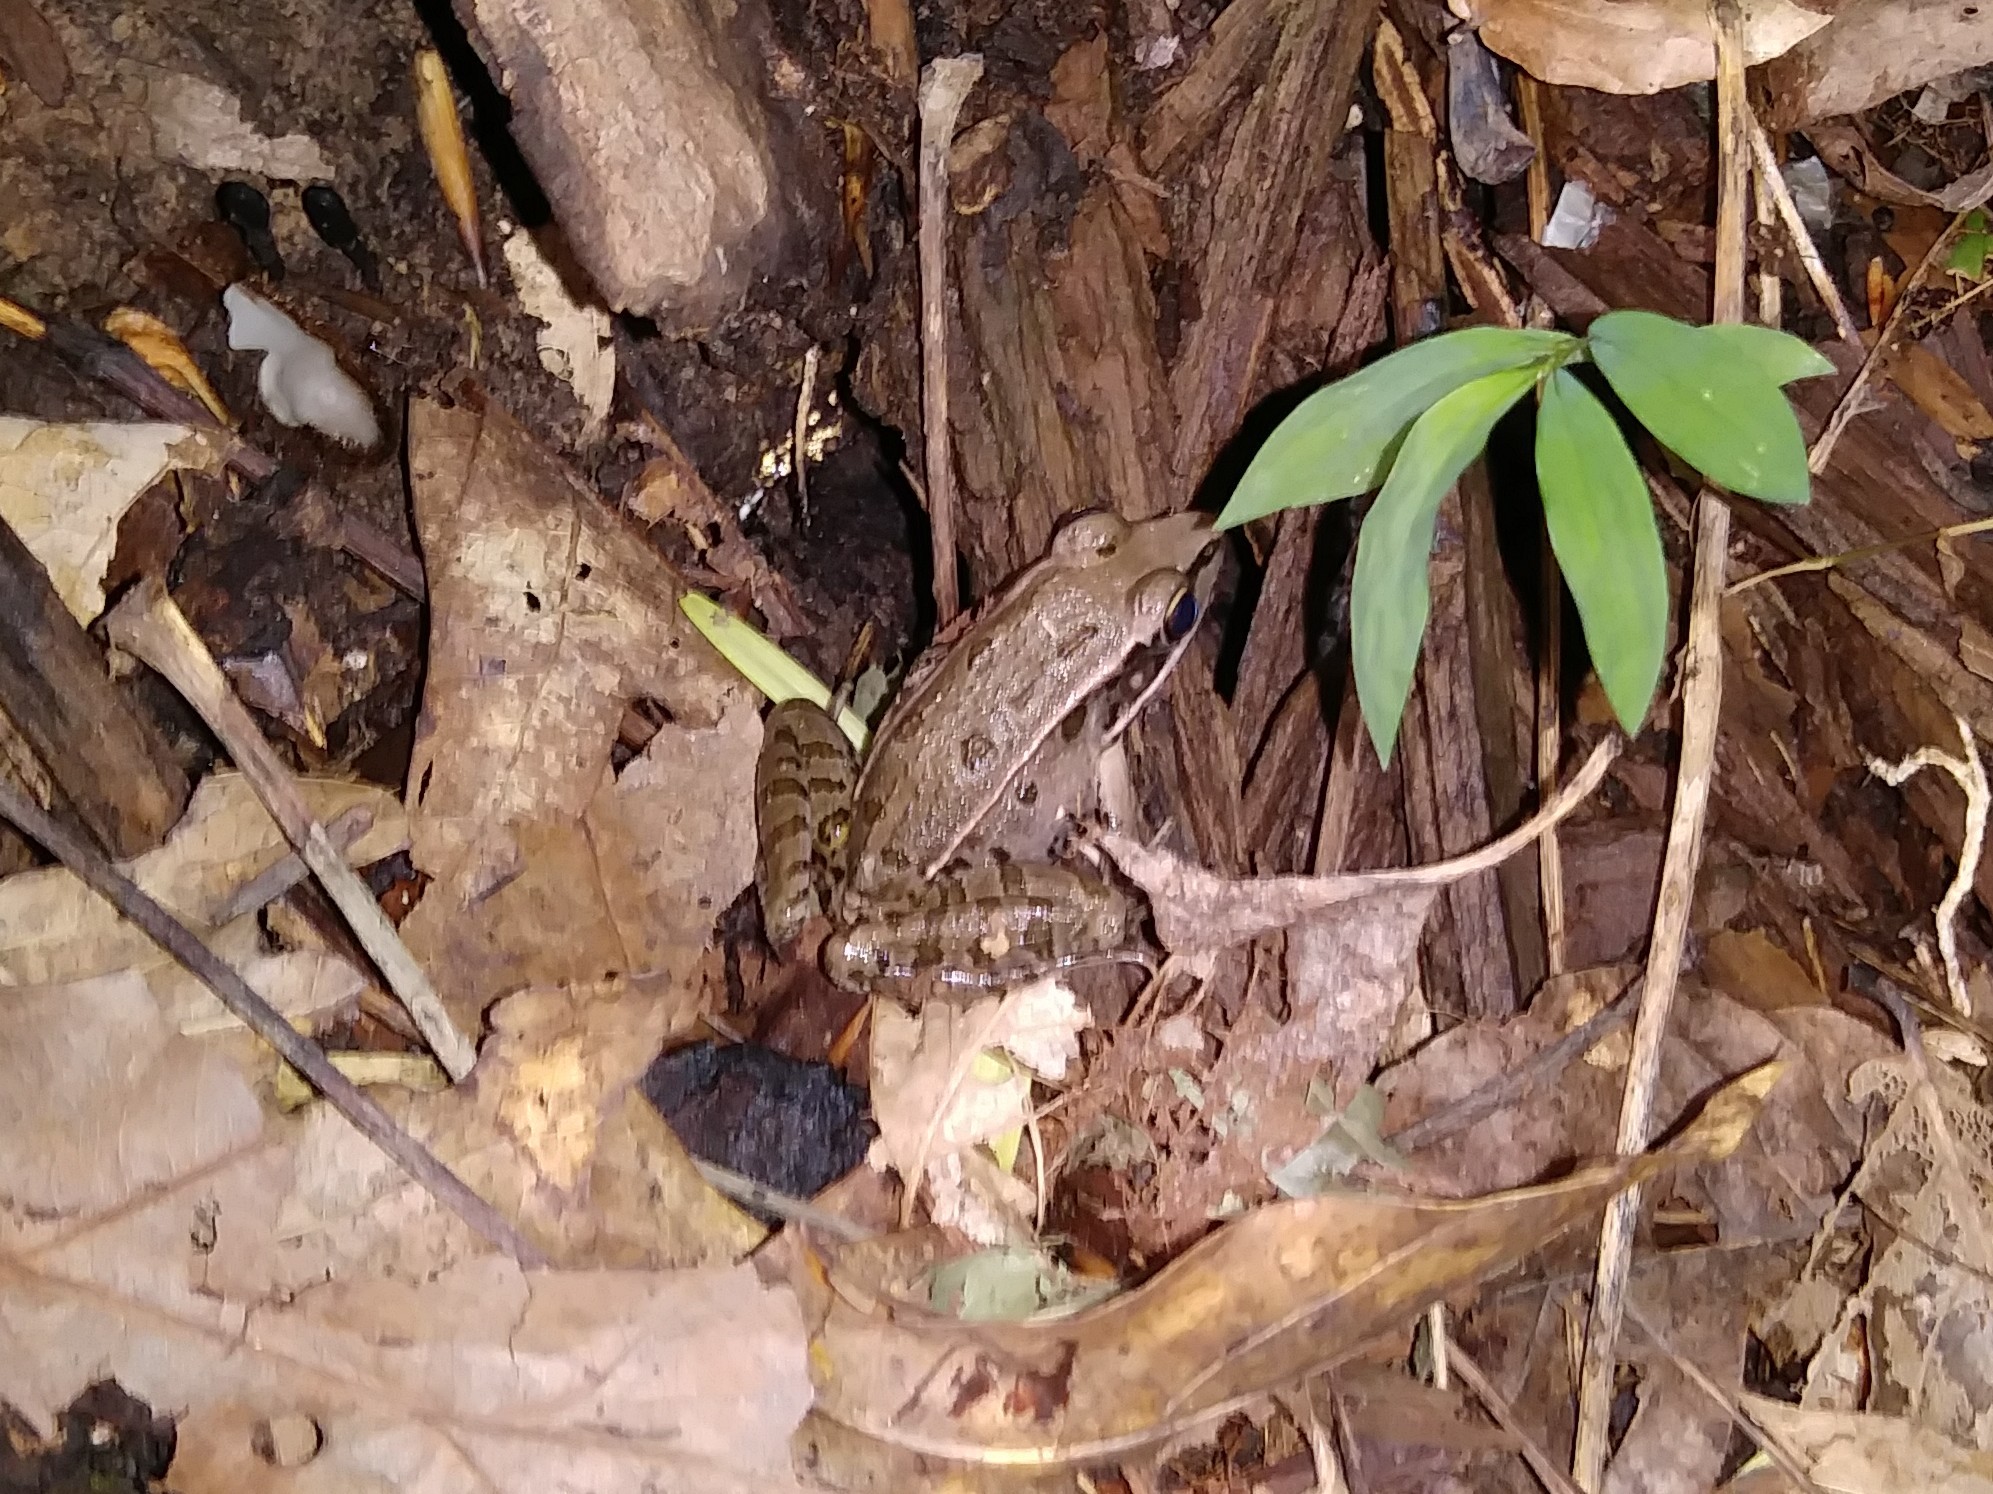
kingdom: Animalia
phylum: Chordata
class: Amphibia
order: Anura
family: Ranidae
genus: Lithobates
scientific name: Lithobates sphenocephalus
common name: Southern leopard frog
